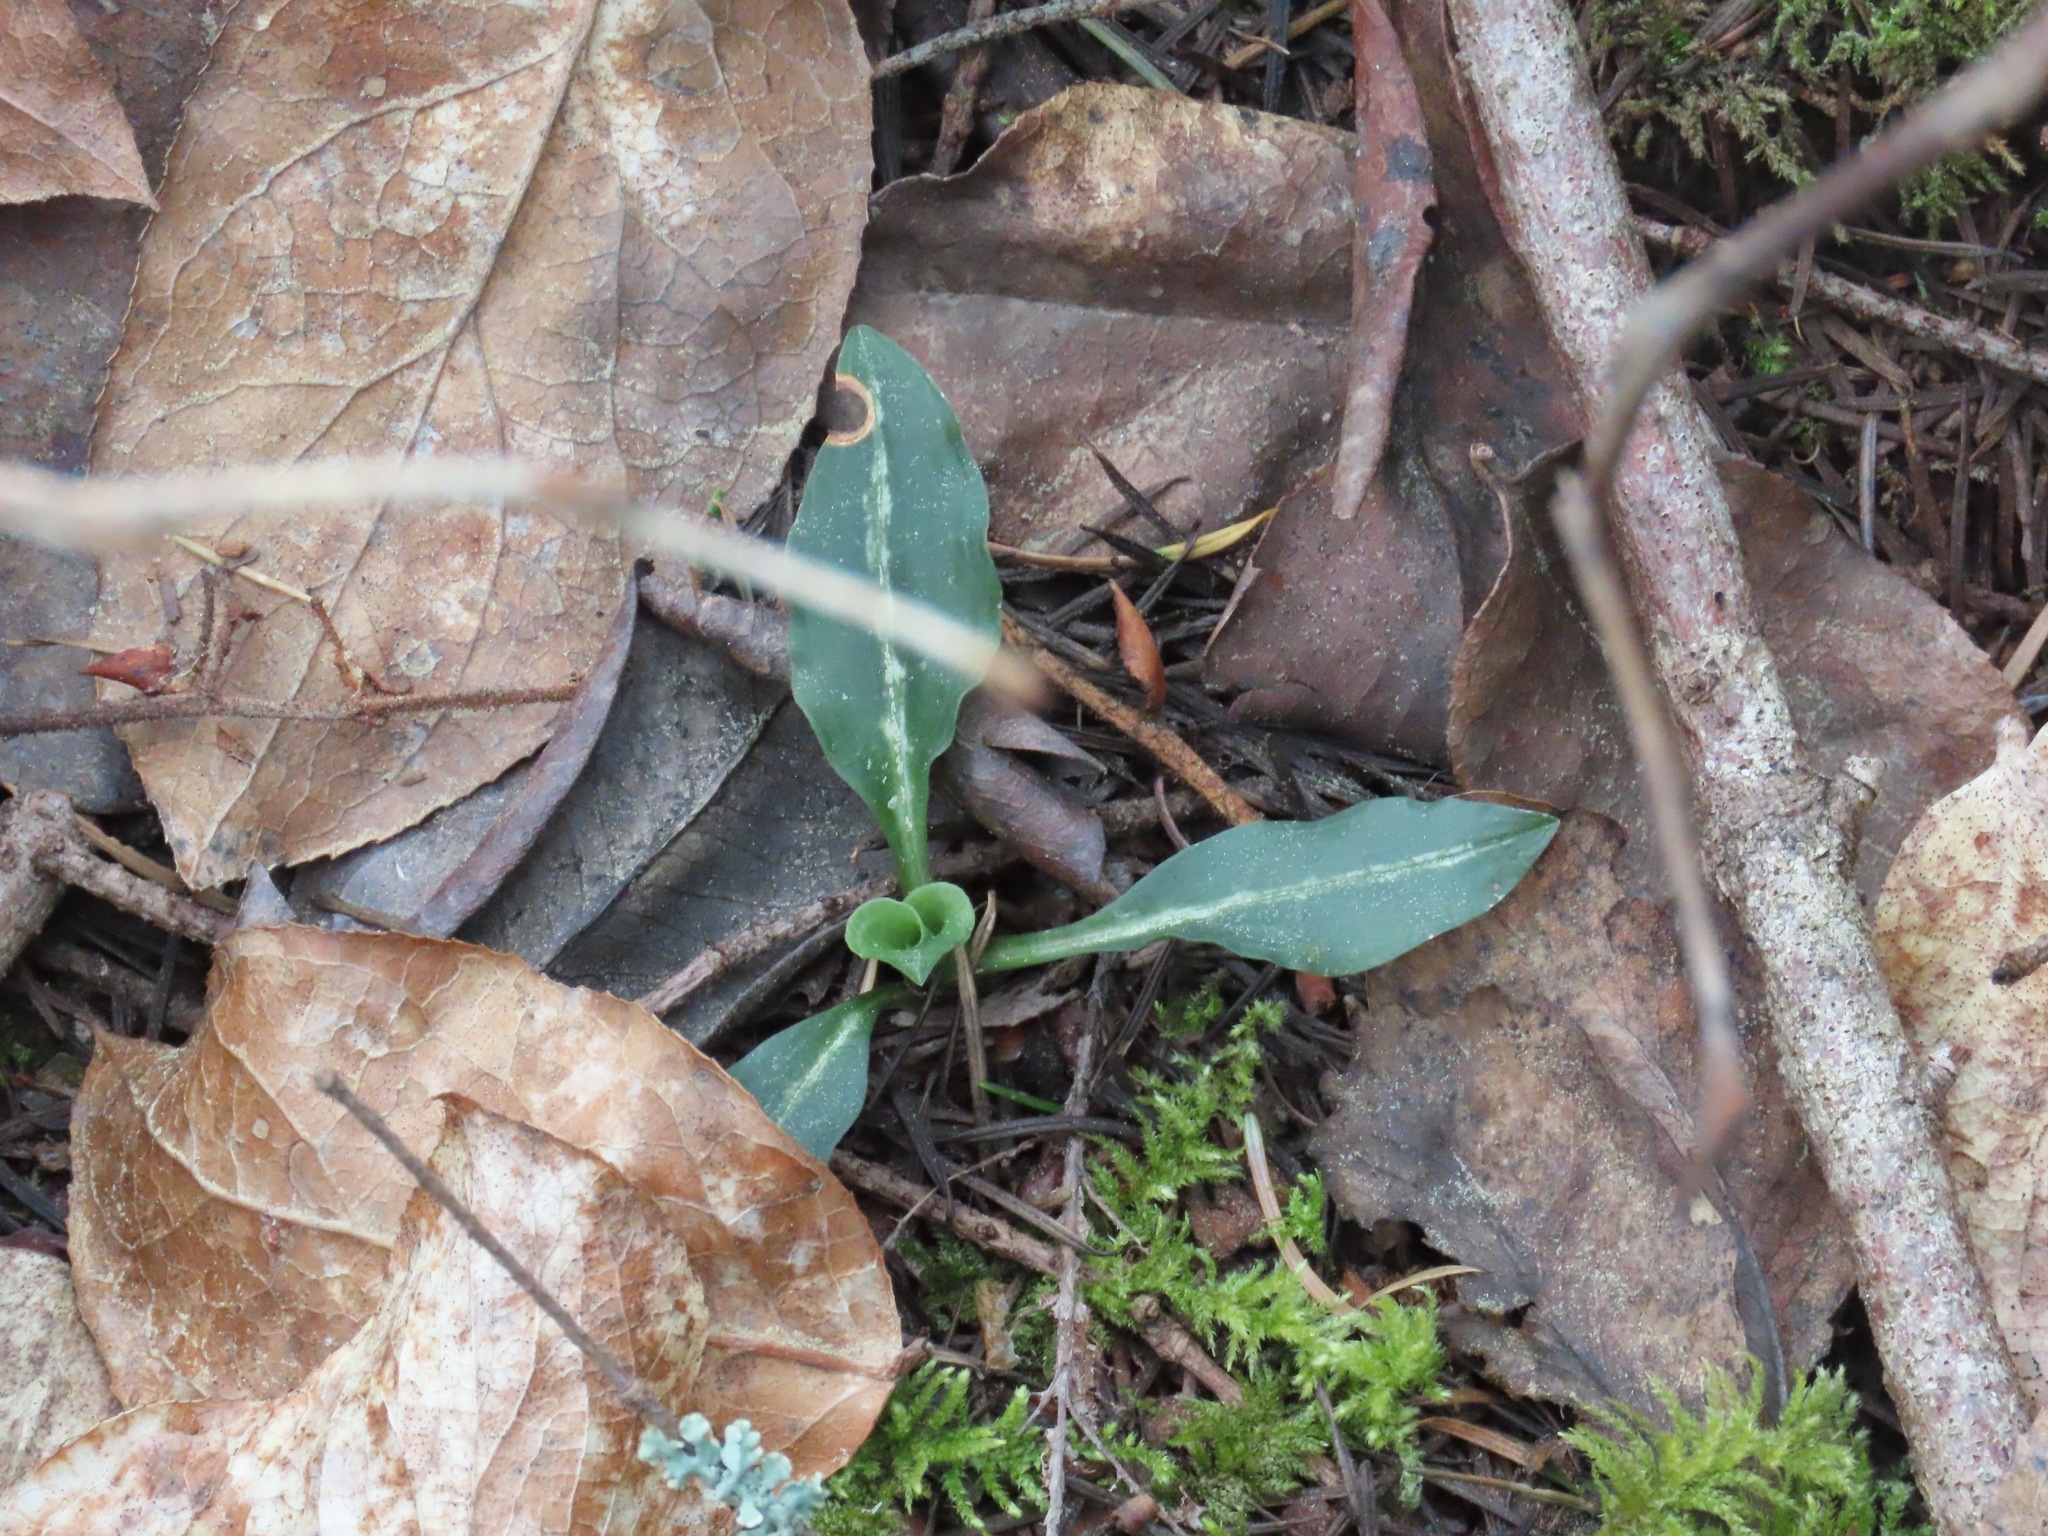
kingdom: Plantae
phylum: Tracheophyta
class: Liliopsida
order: Asparagales
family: Orchidaceae
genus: Goodyera
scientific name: Goodyera oblongifolia
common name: Giant rattlesnake-plantain
